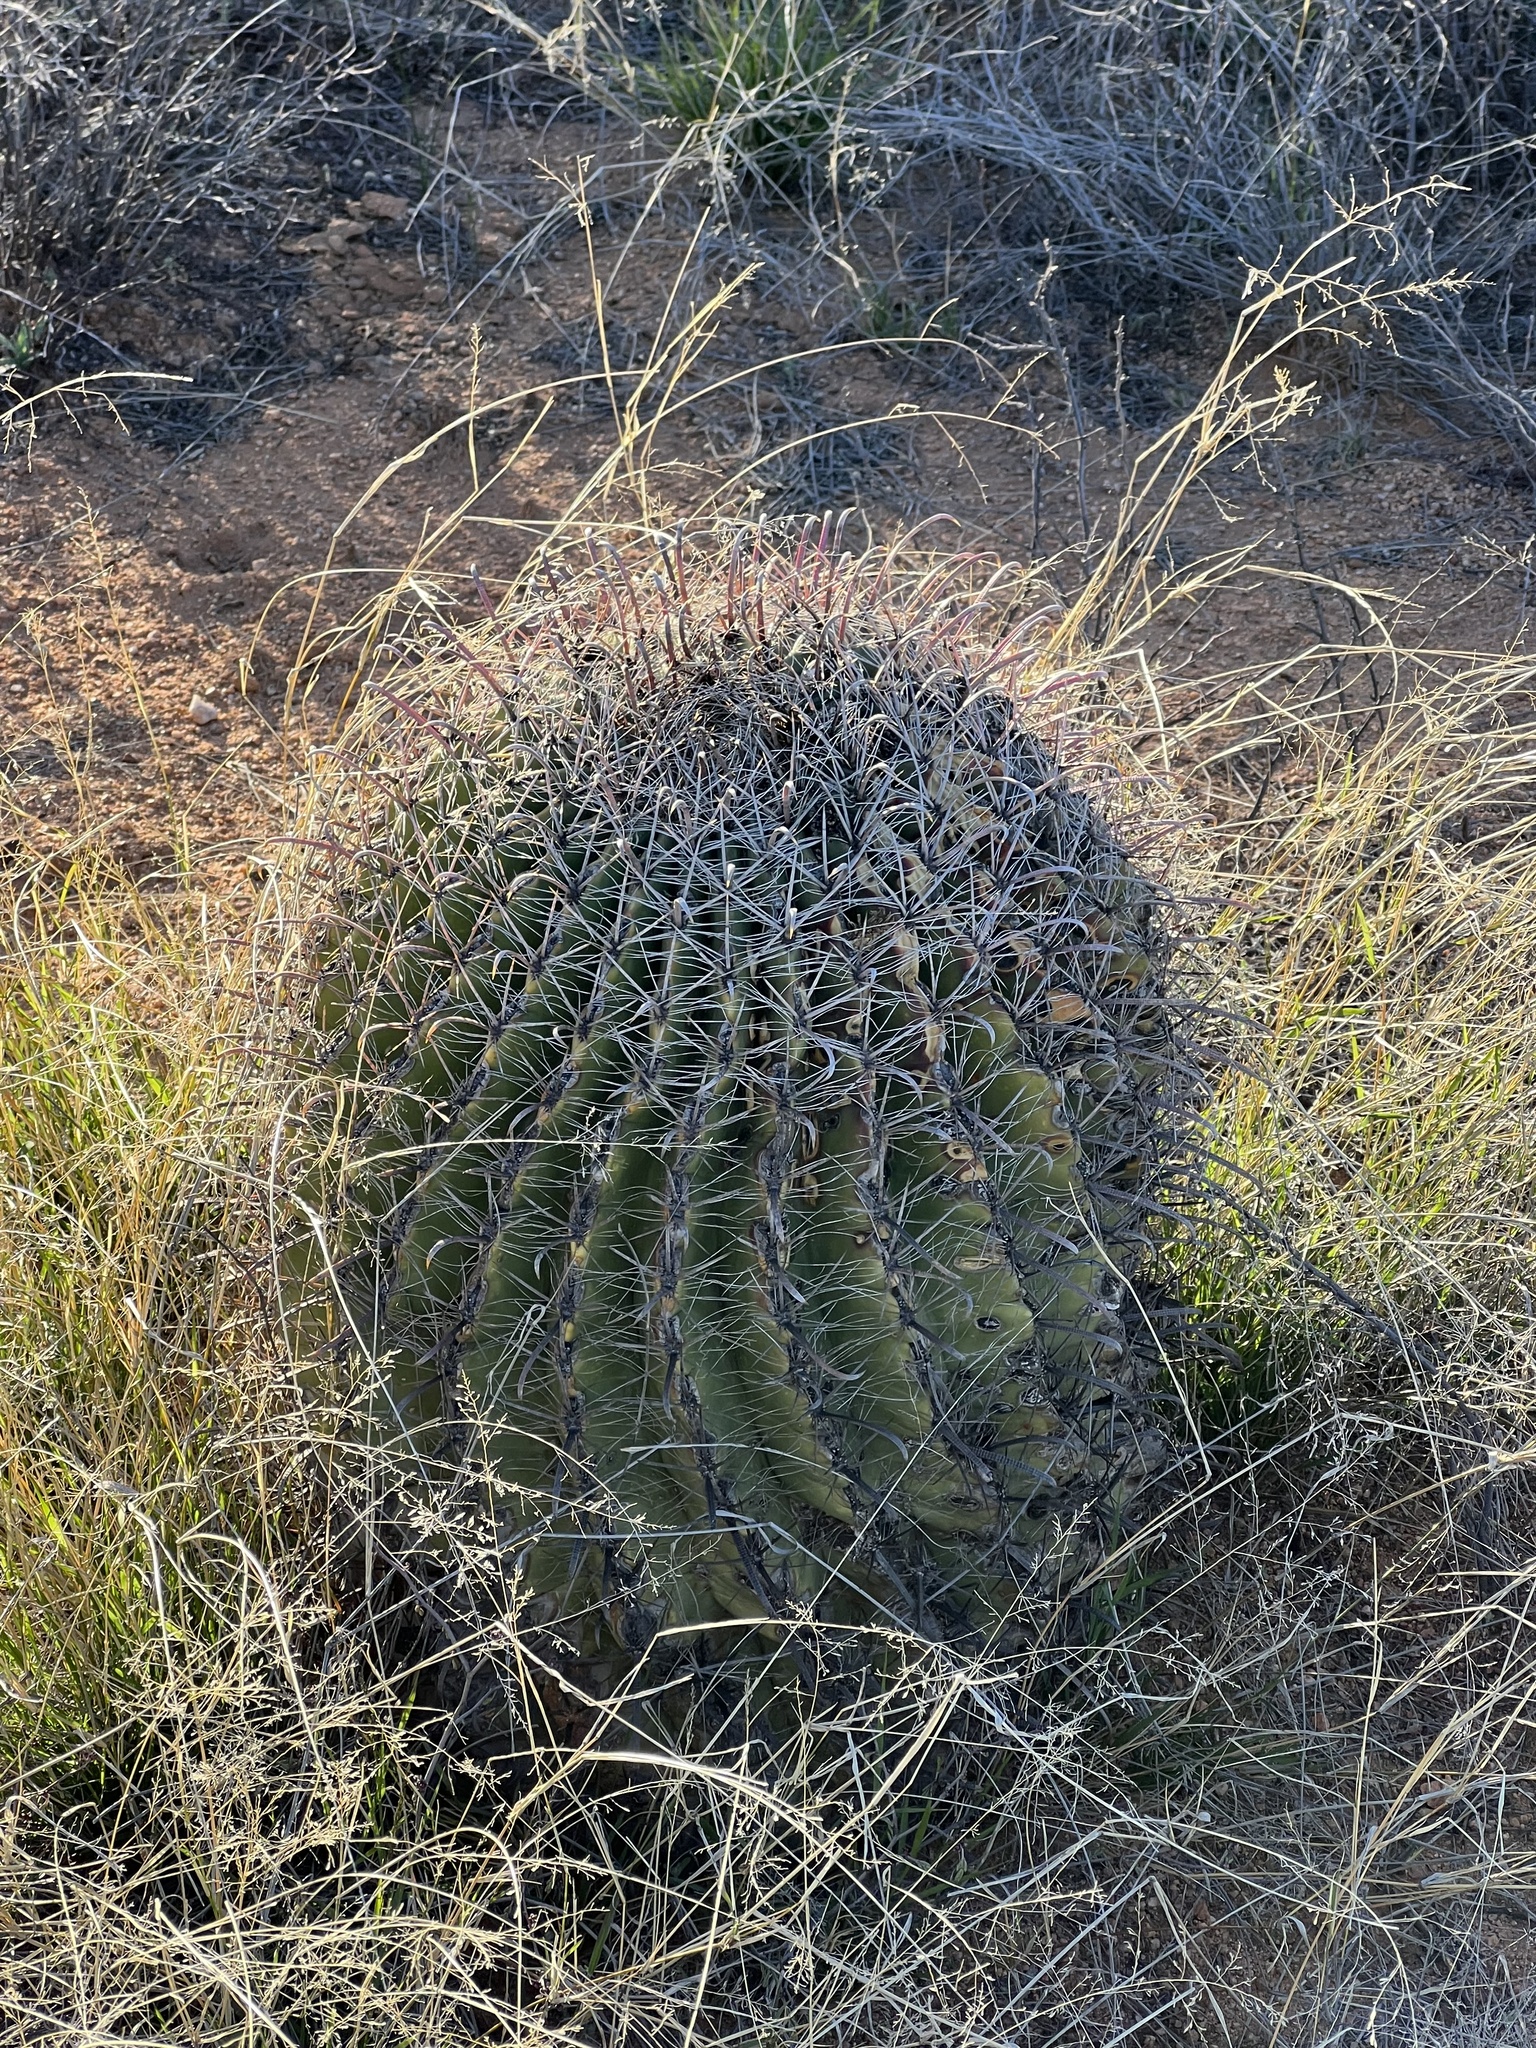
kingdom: Plantae
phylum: Tracheophyta
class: Magnoliopsida
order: Caryophyllales
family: Cactaceae
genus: Ferocactus
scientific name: Ferocactus wislizeni
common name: Candy barrel cactus
